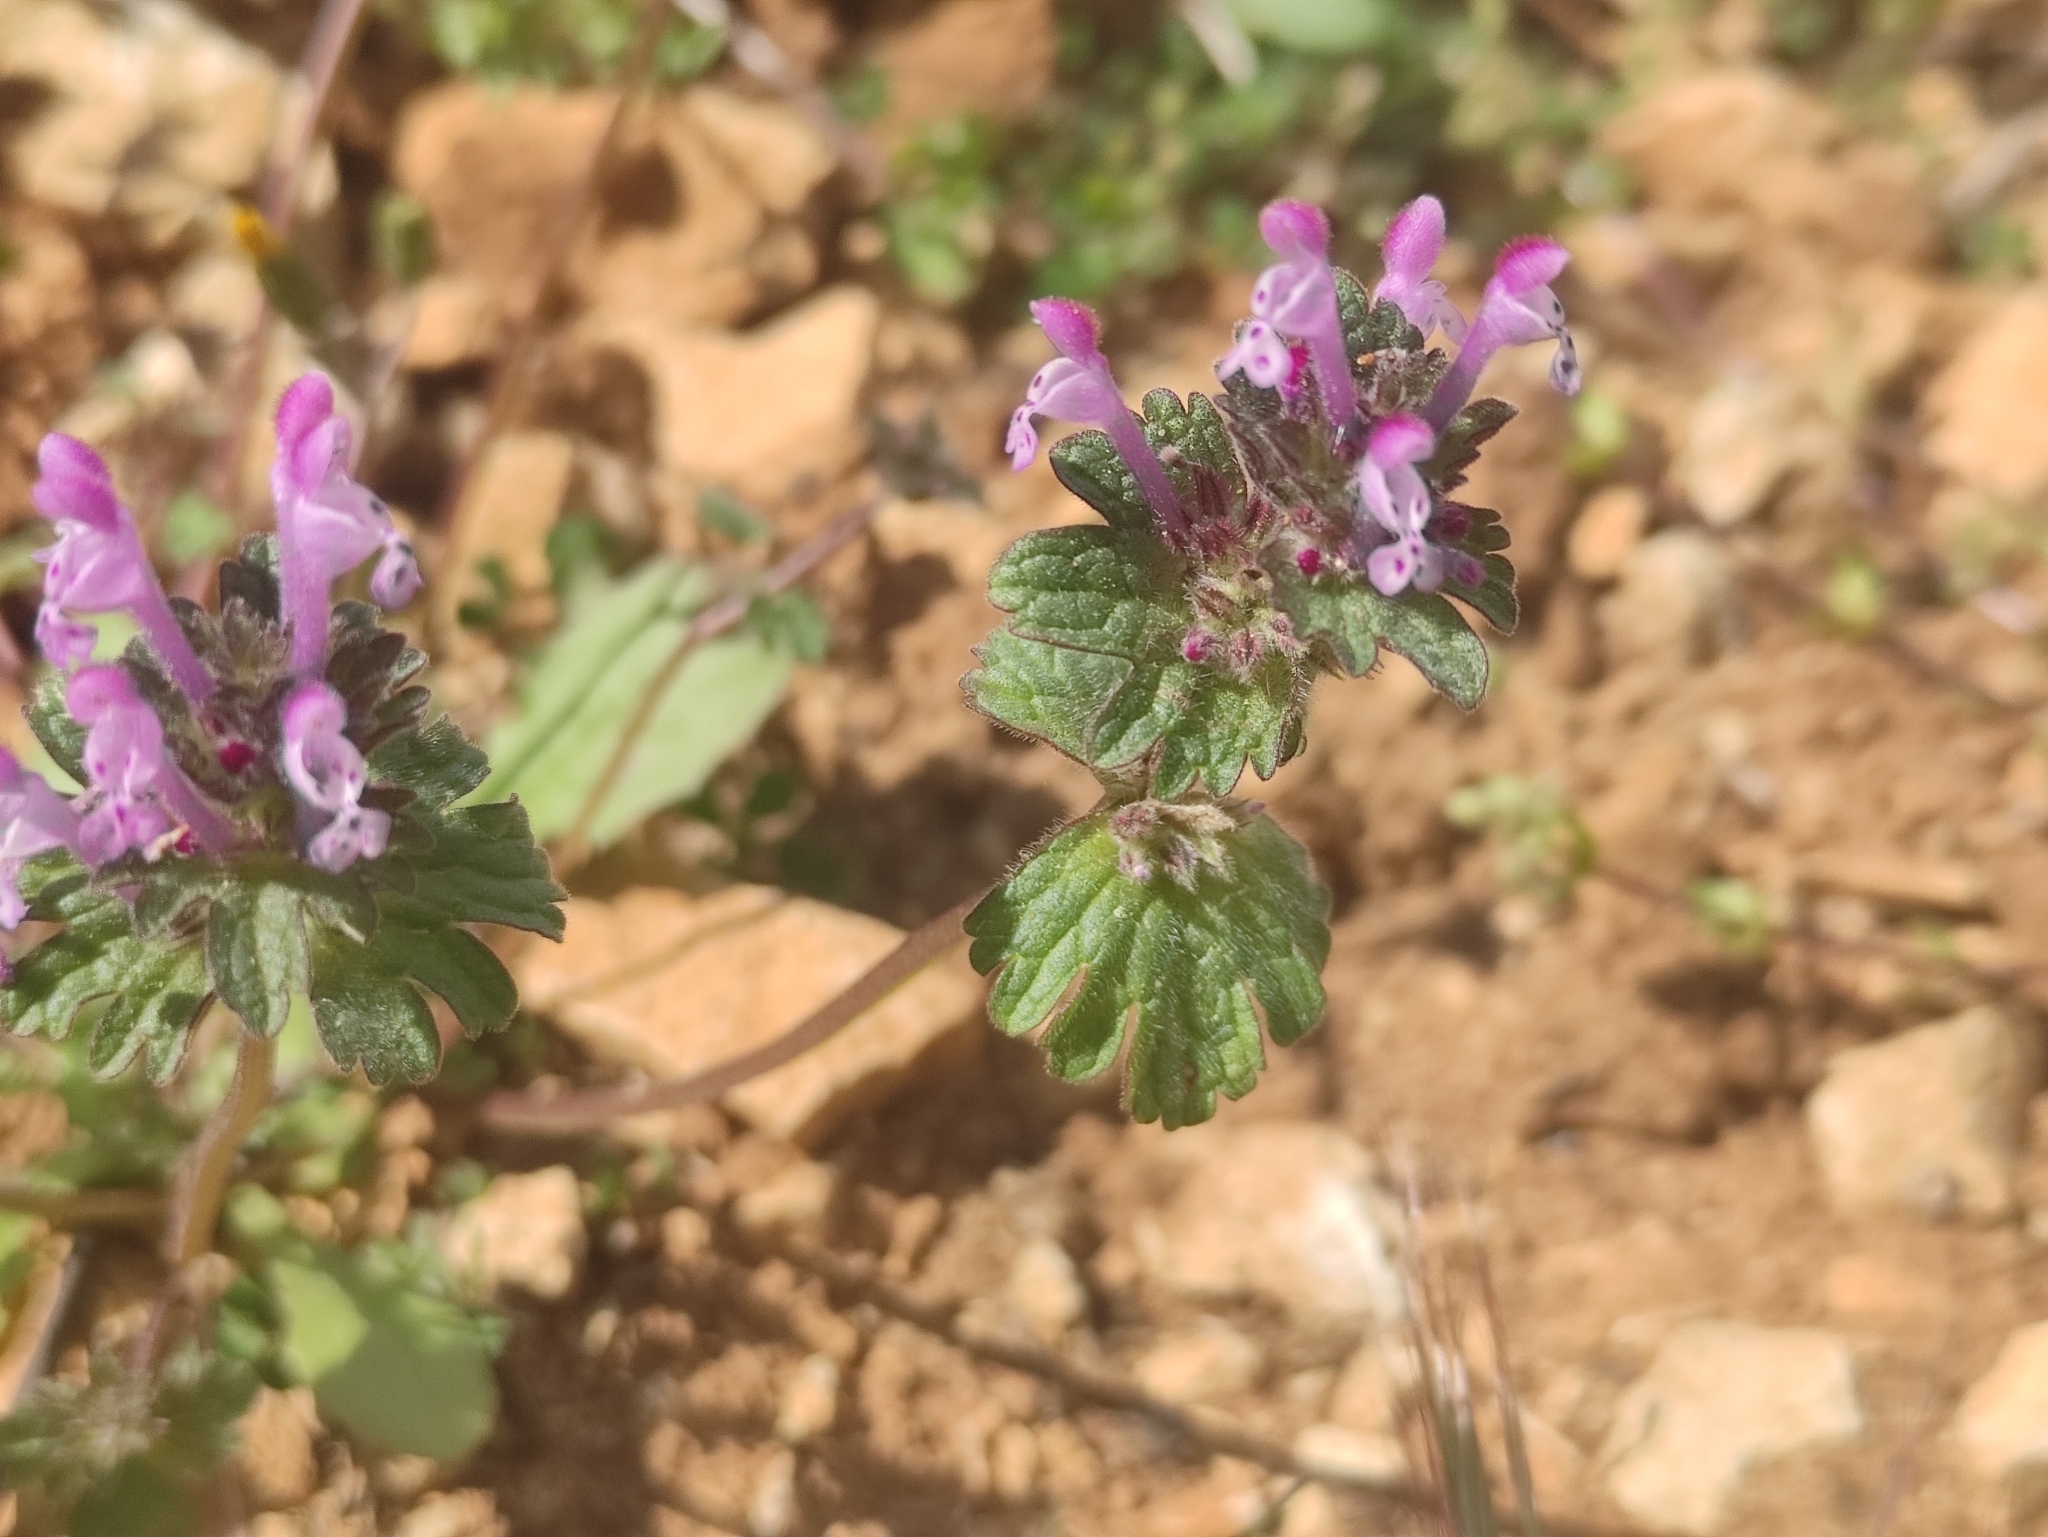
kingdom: Plantae
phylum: Tracheophyta
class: Magnoliopsida
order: Lamiales
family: Lamiaceae
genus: Lamium
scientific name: Lamium amplexicaule
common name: Henbit dead-nettle
